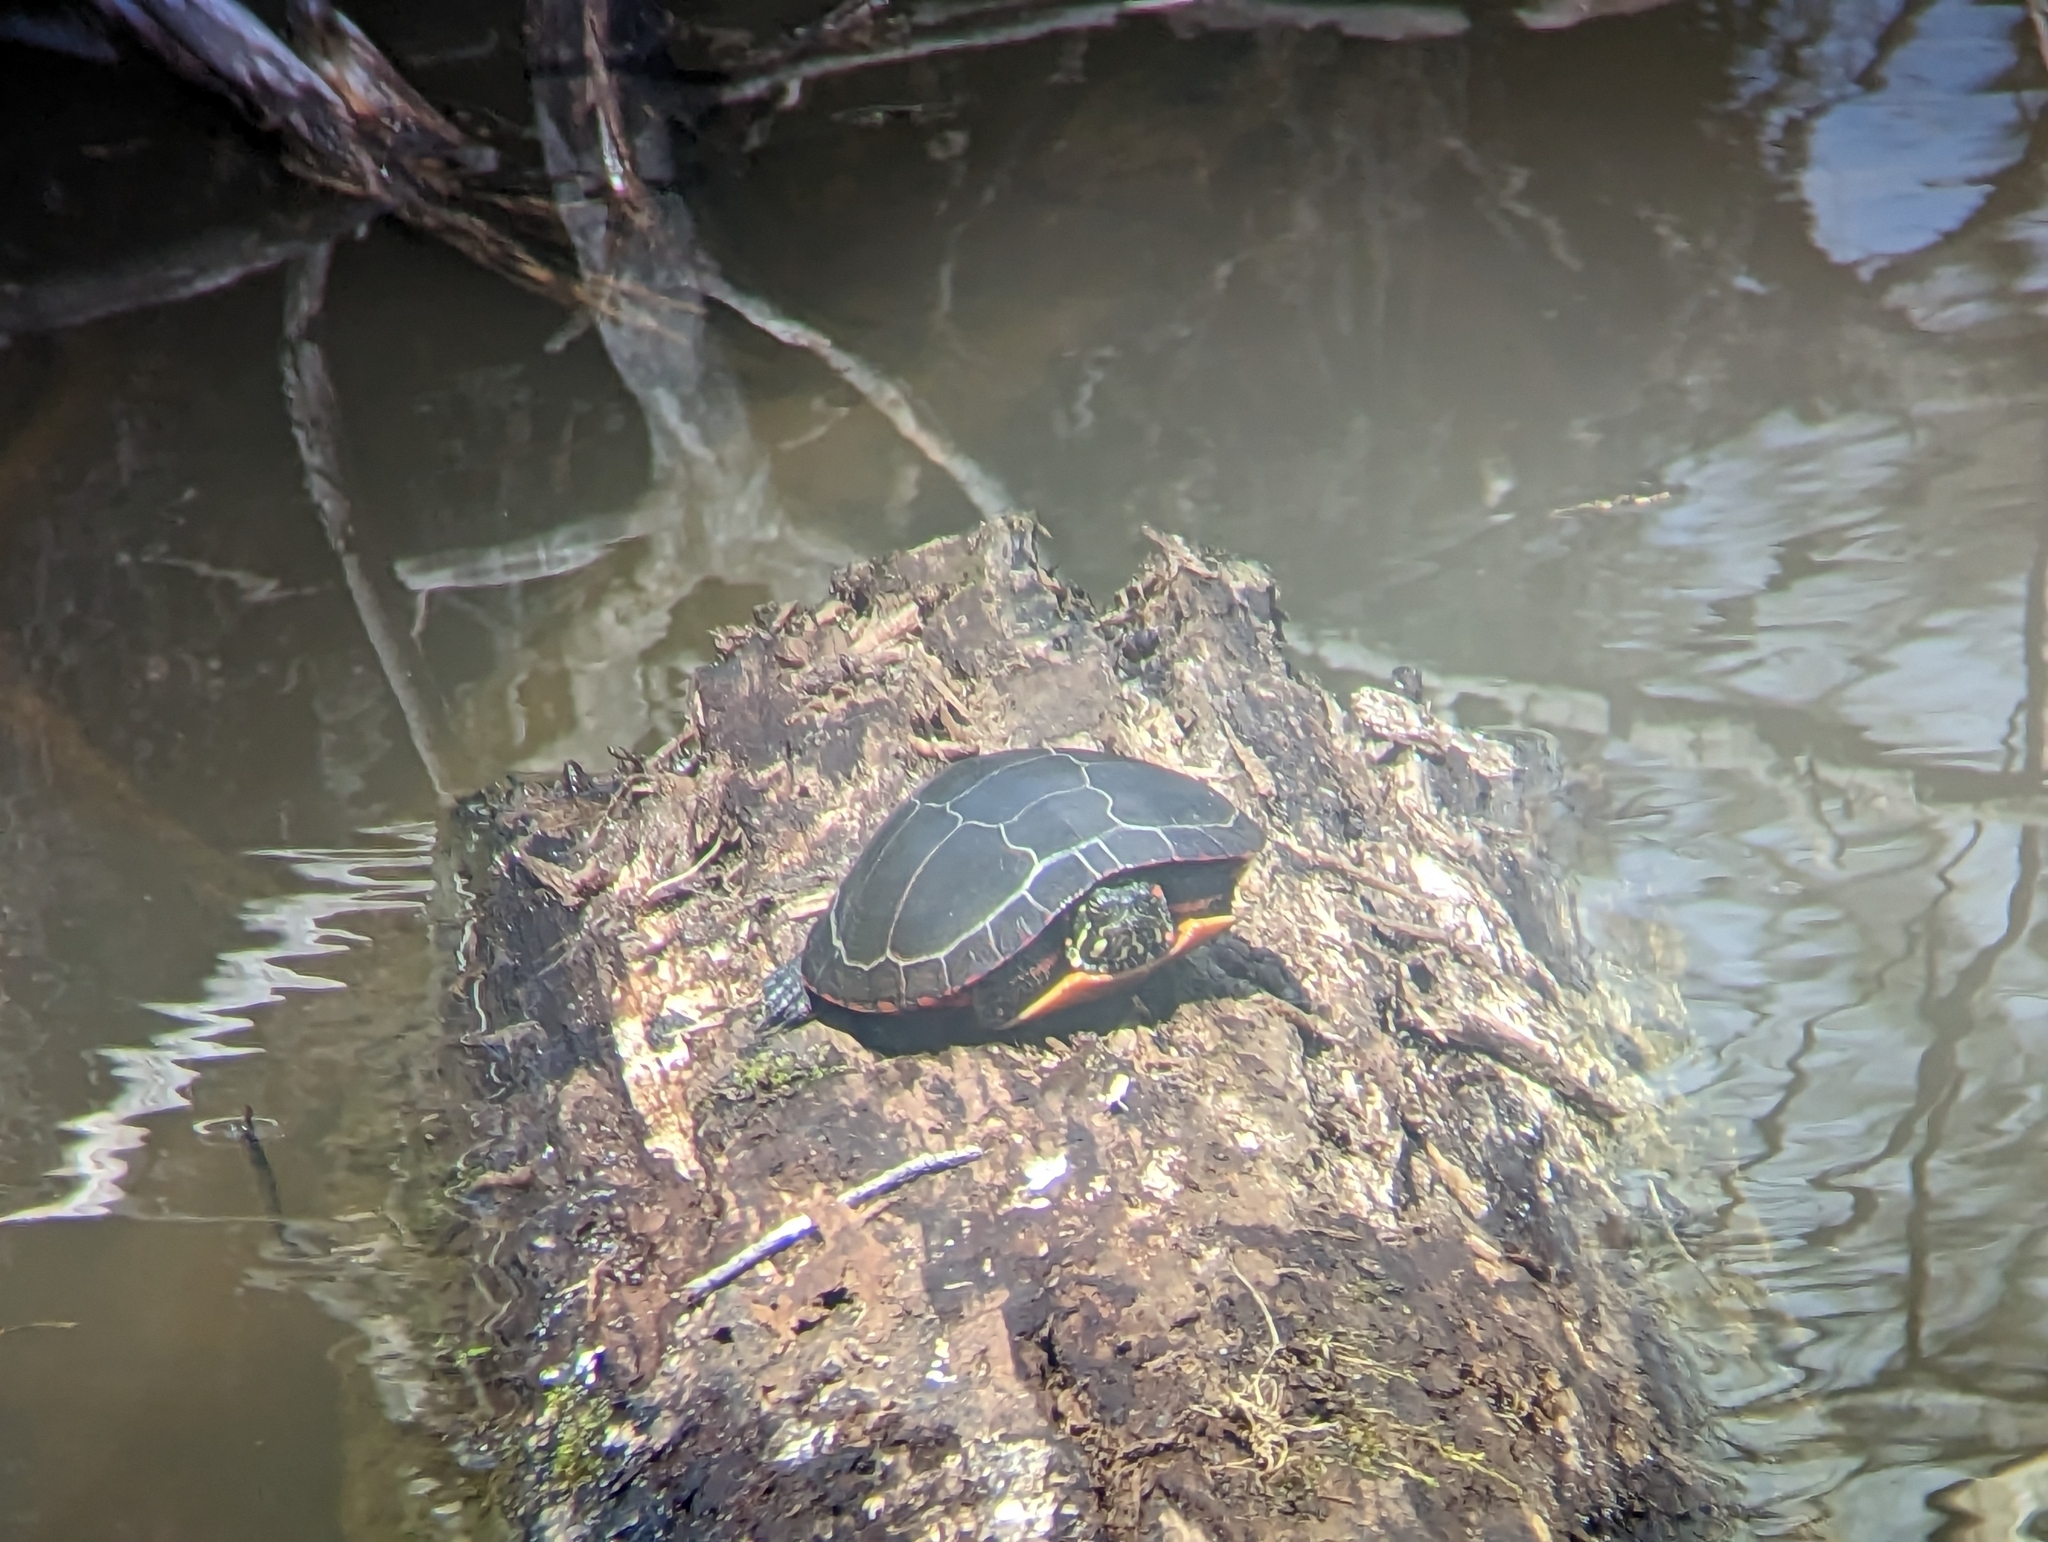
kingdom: Animalia
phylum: Chordata
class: Testudines
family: Emydidae
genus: Chrysemys
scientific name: Chrysemys picta
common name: Painted turtle
